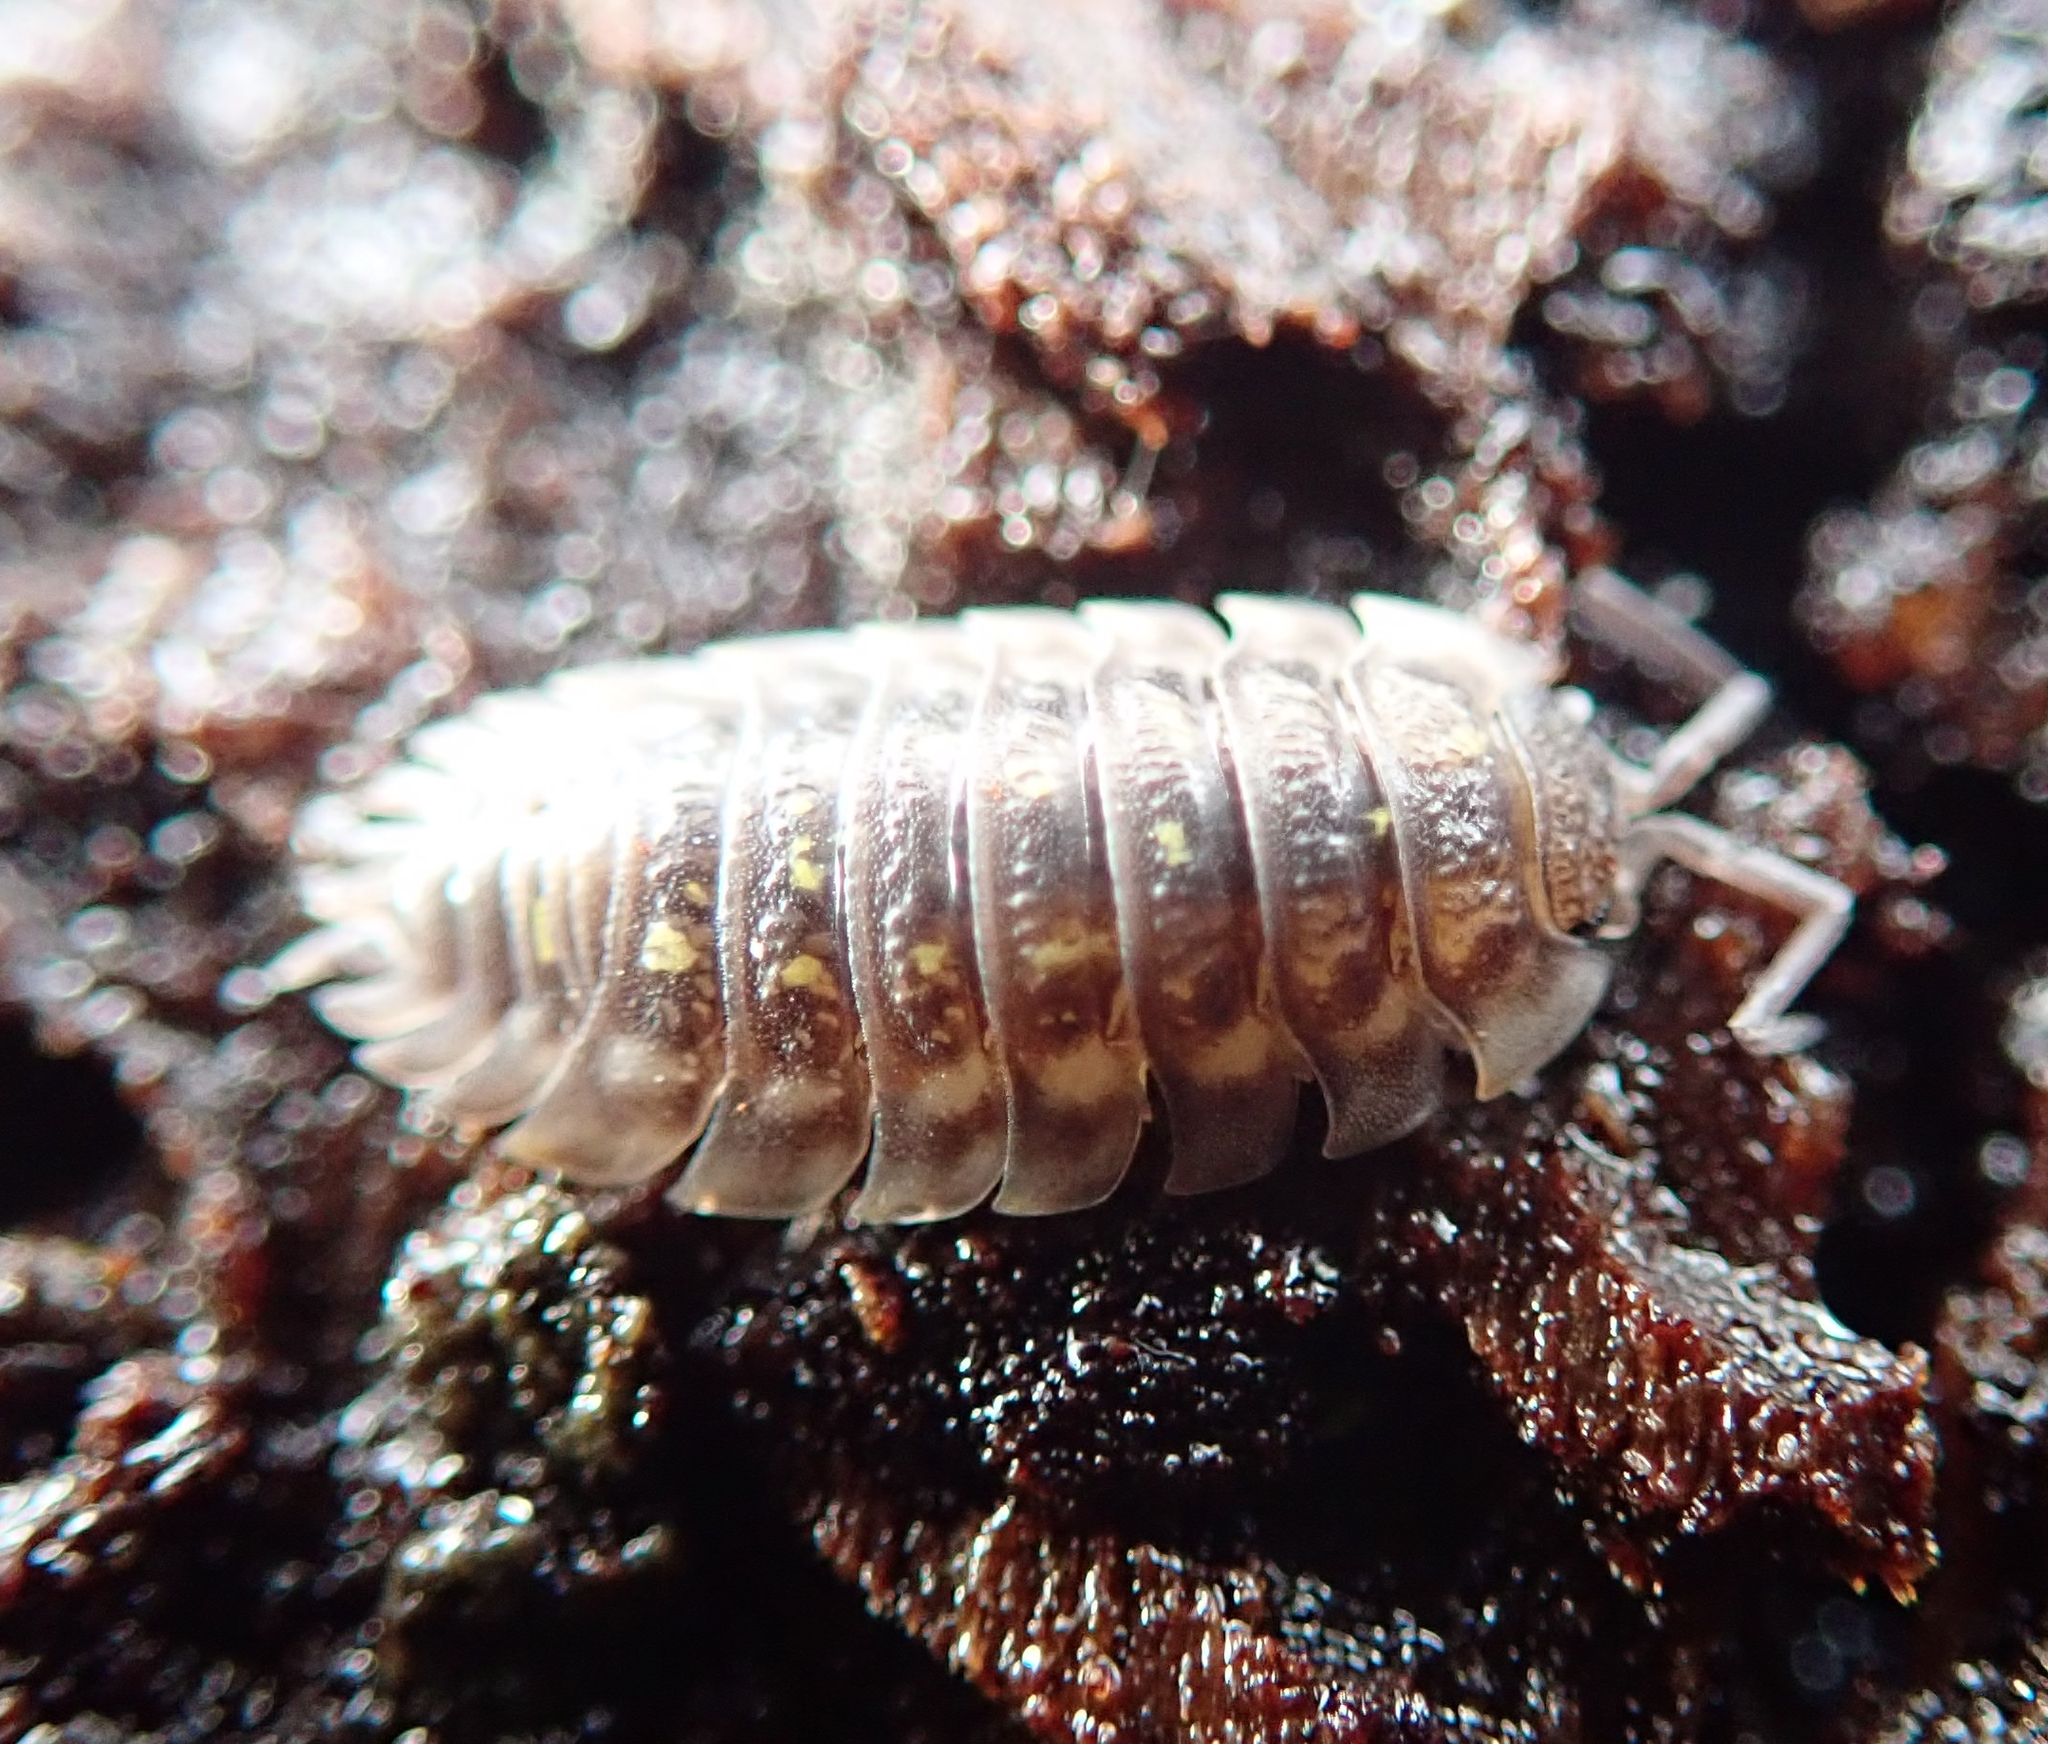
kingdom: Animalia
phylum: Arthropoda
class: Malacostraca
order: Isopoda
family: Oniscidae
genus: Oniscus
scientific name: Oniscus asellus
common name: Common shiny woodlouse
